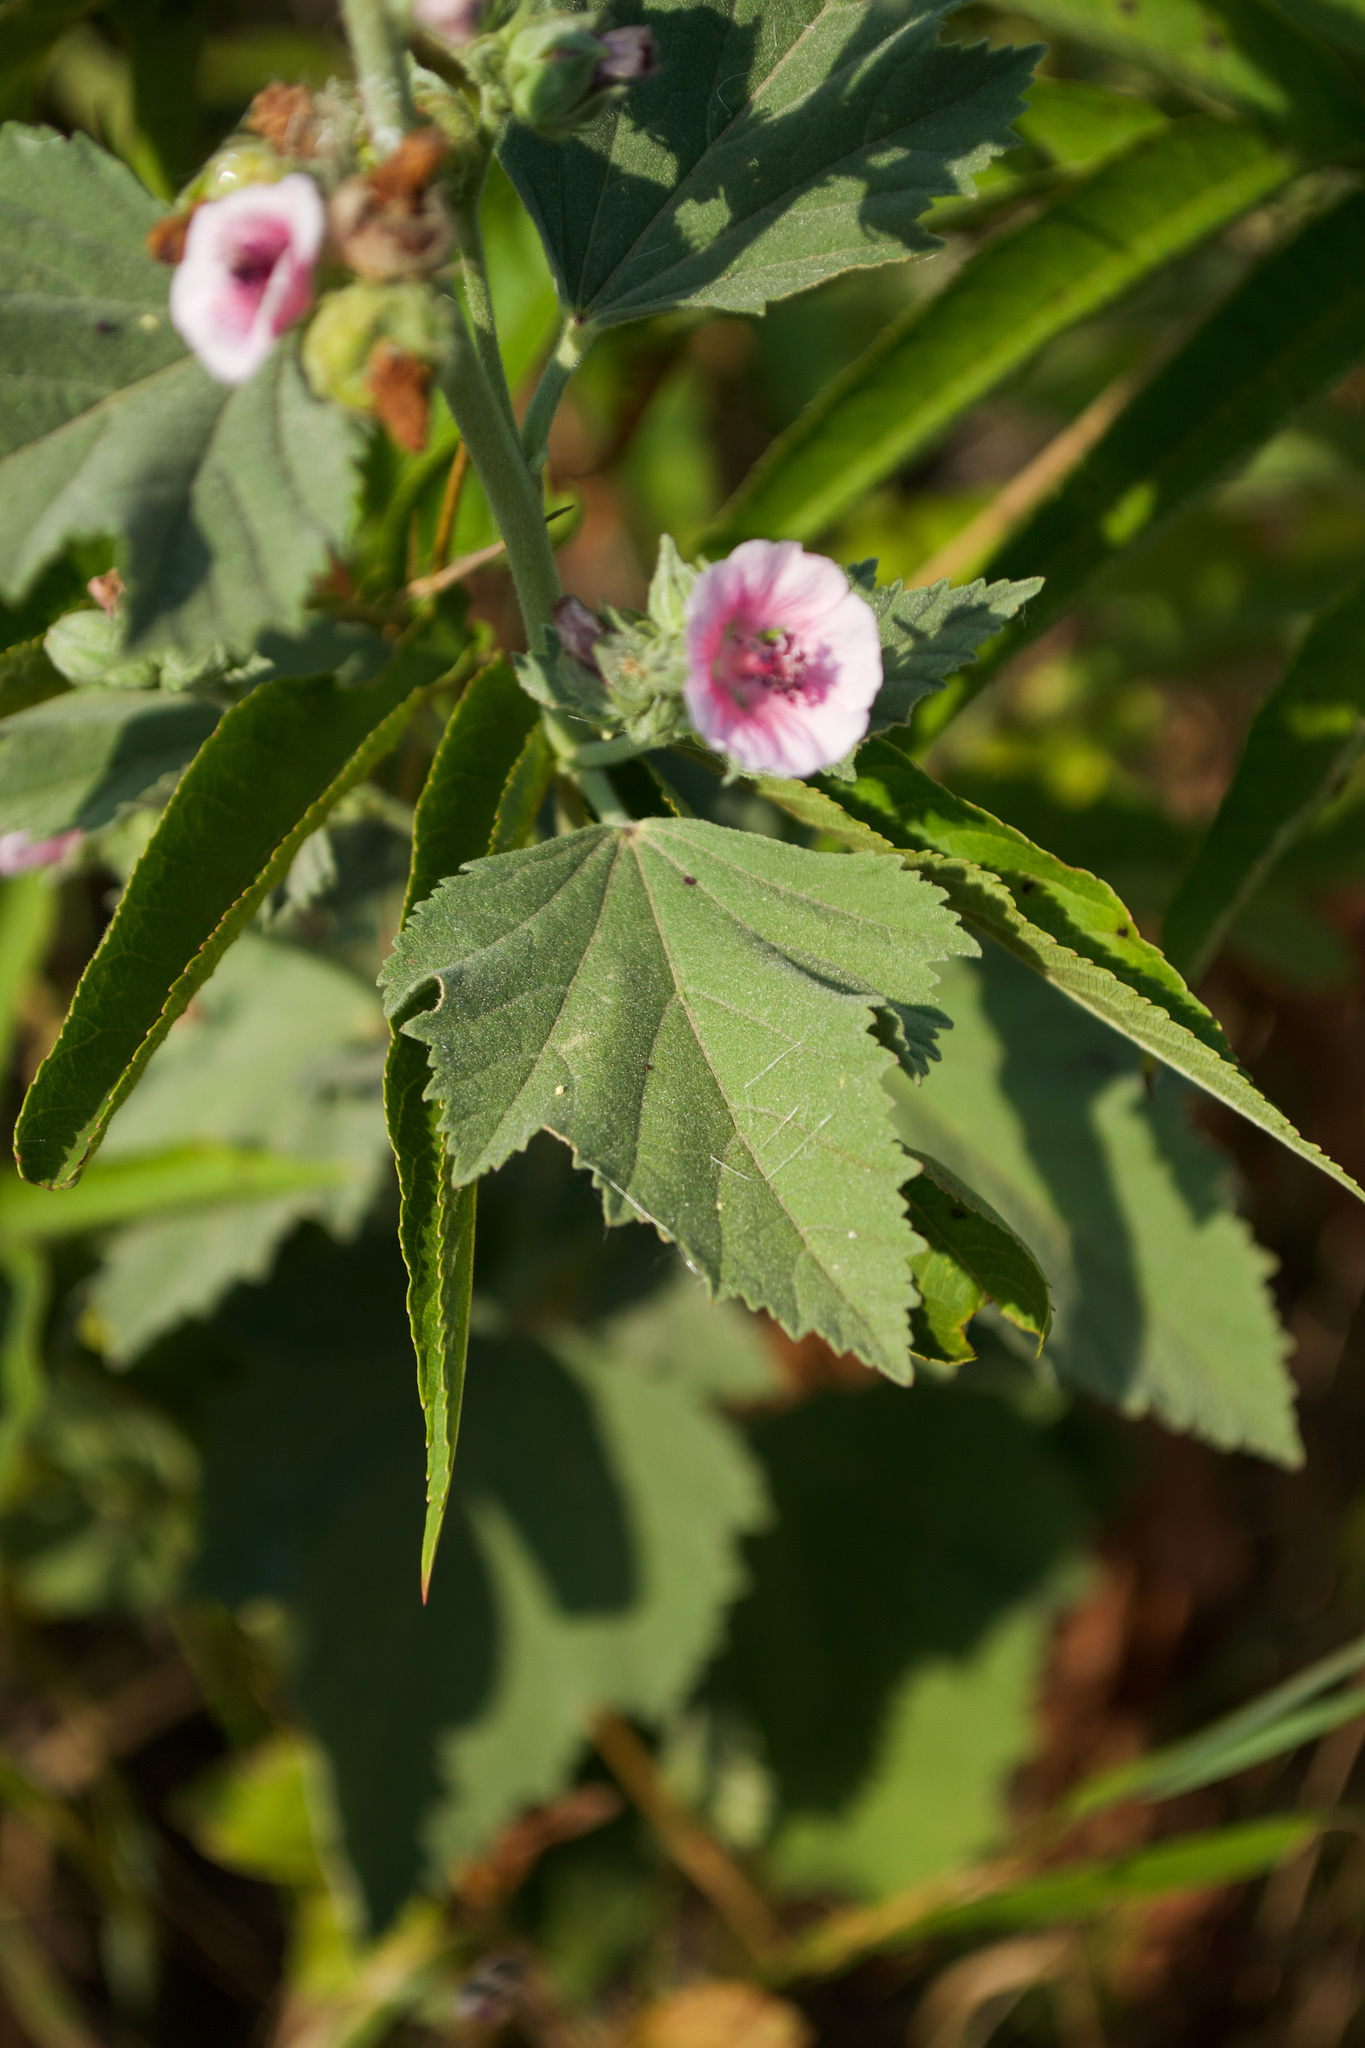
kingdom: Plantae
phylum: Tracheophyta
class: Magnoliopsida
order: Malvales
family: Malvaceae
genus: Althaea
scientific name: Althaea officinalis
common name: Marsh-mallow
